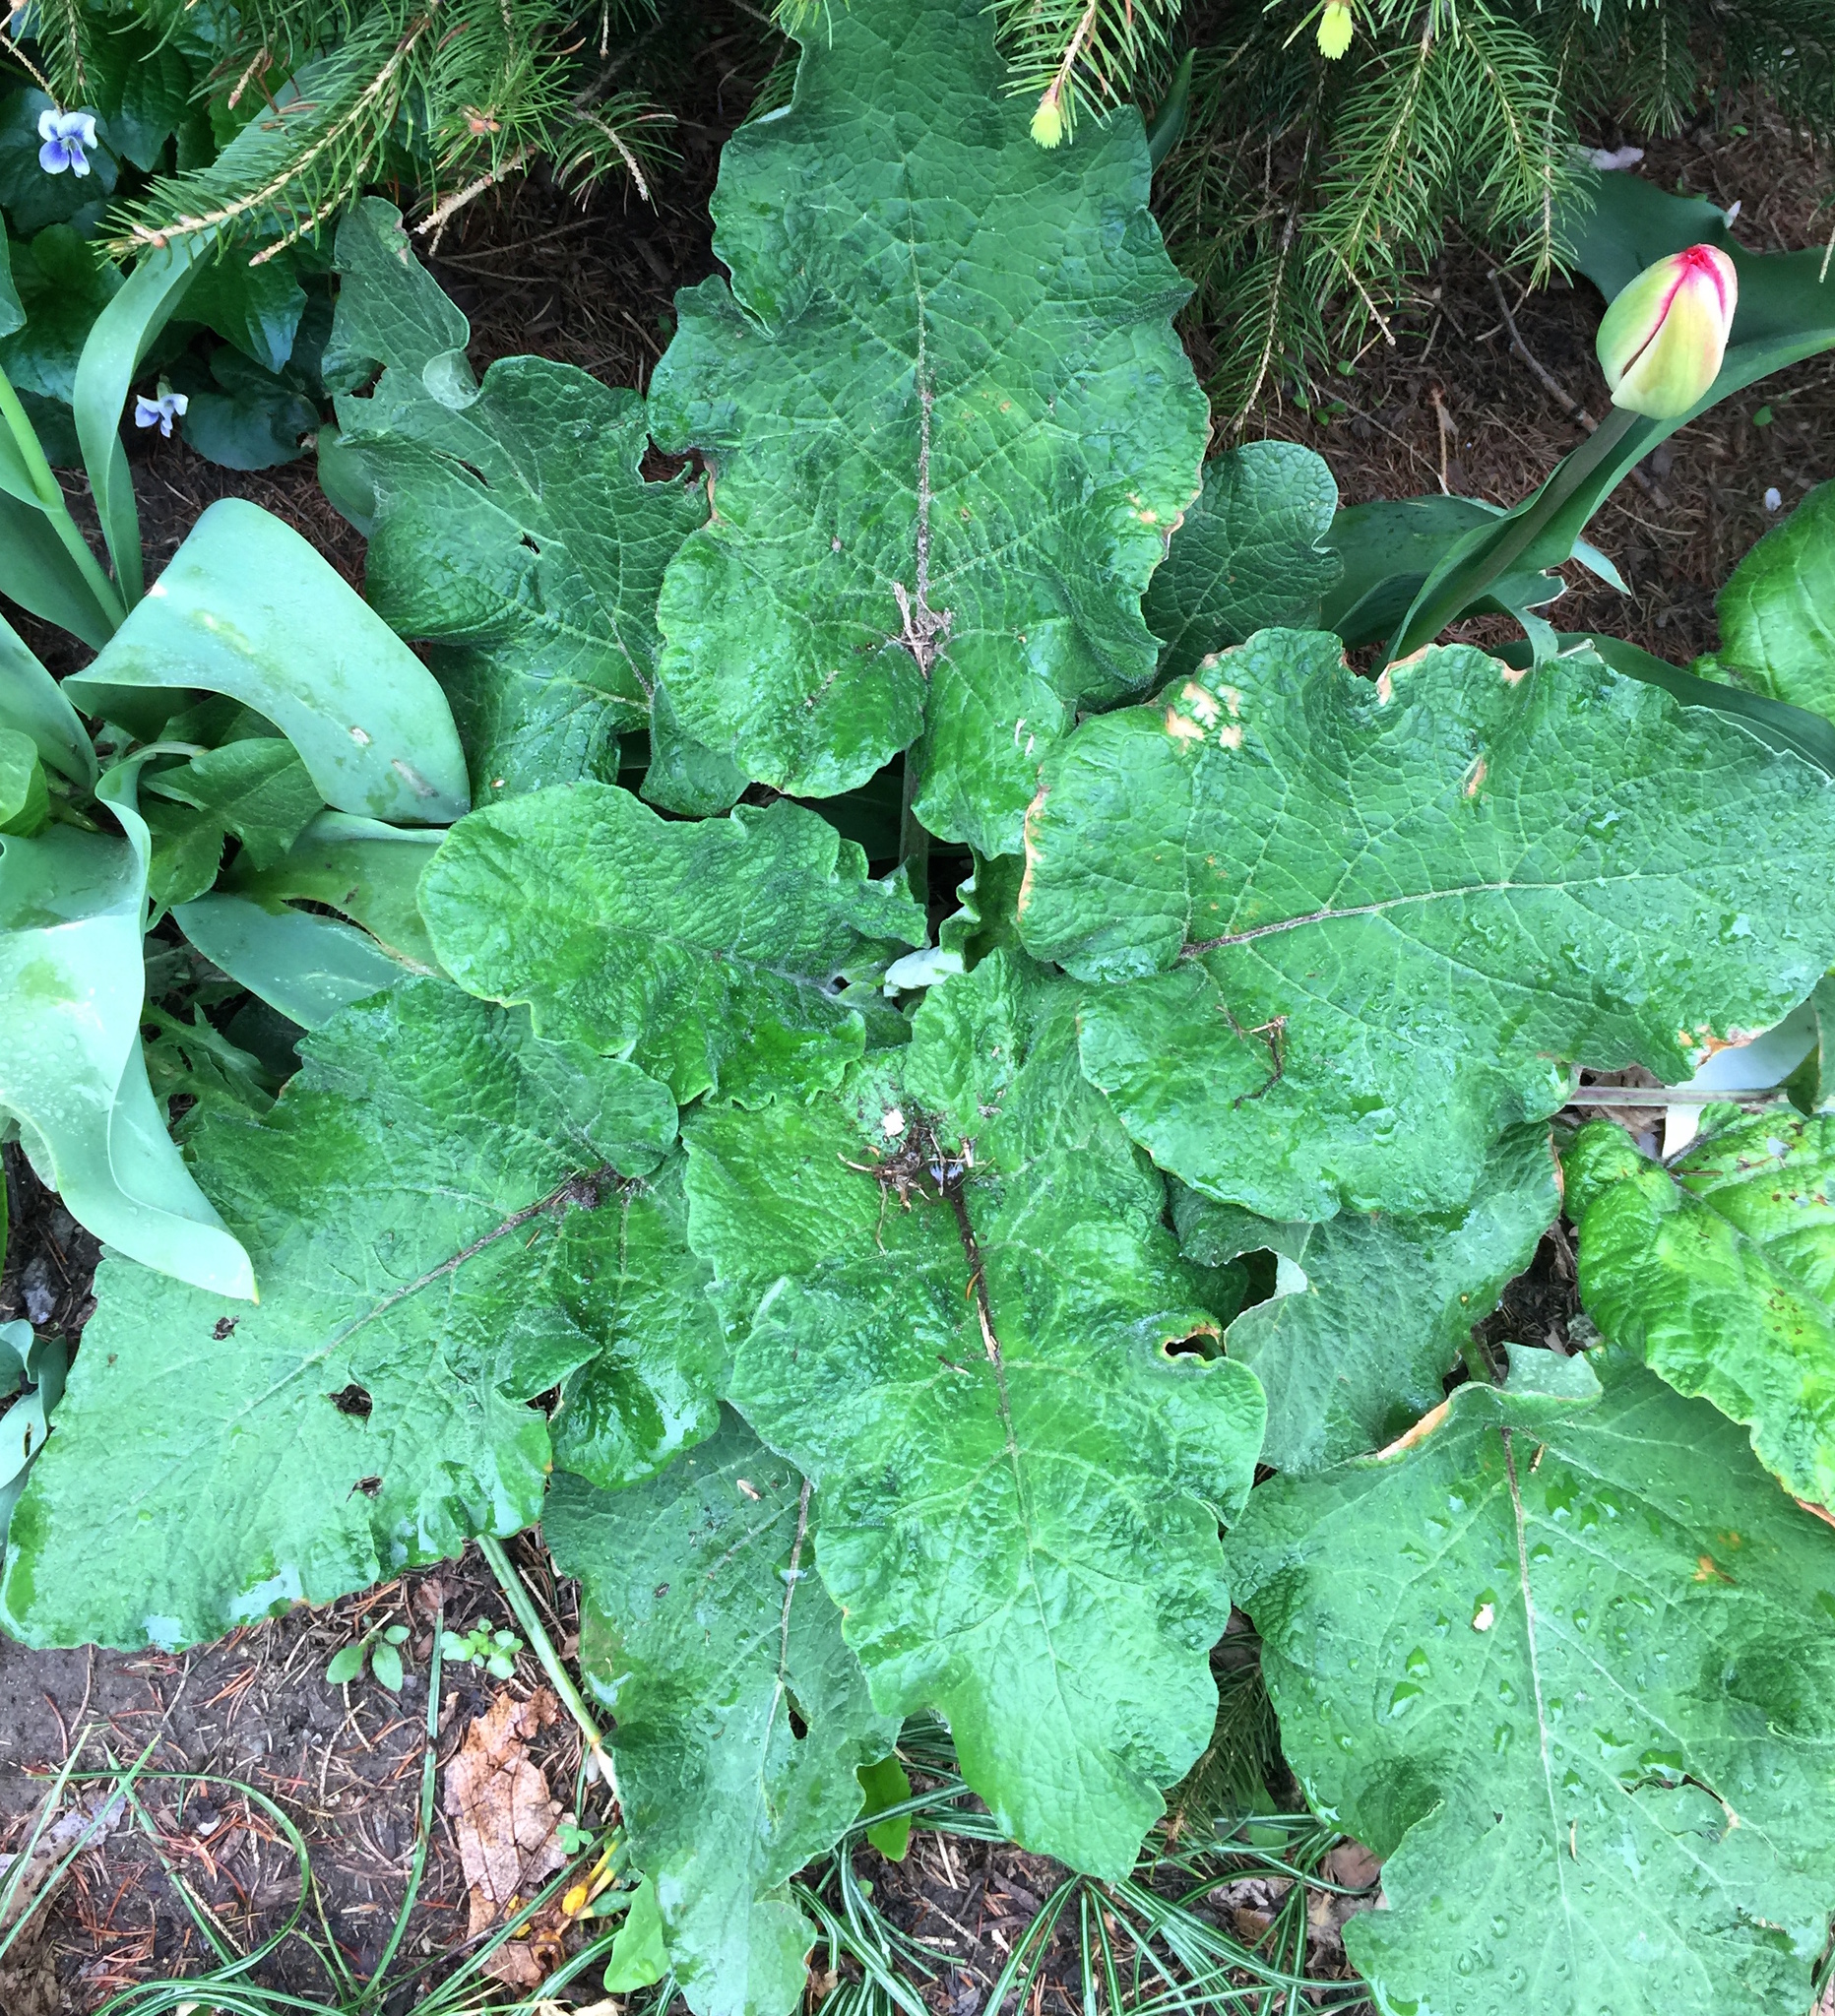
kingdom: Plantae
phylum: Tracheophyta
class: Magnoliopsida
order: Asterales
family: Asteraceae
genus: Arctium
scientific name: Arctium
